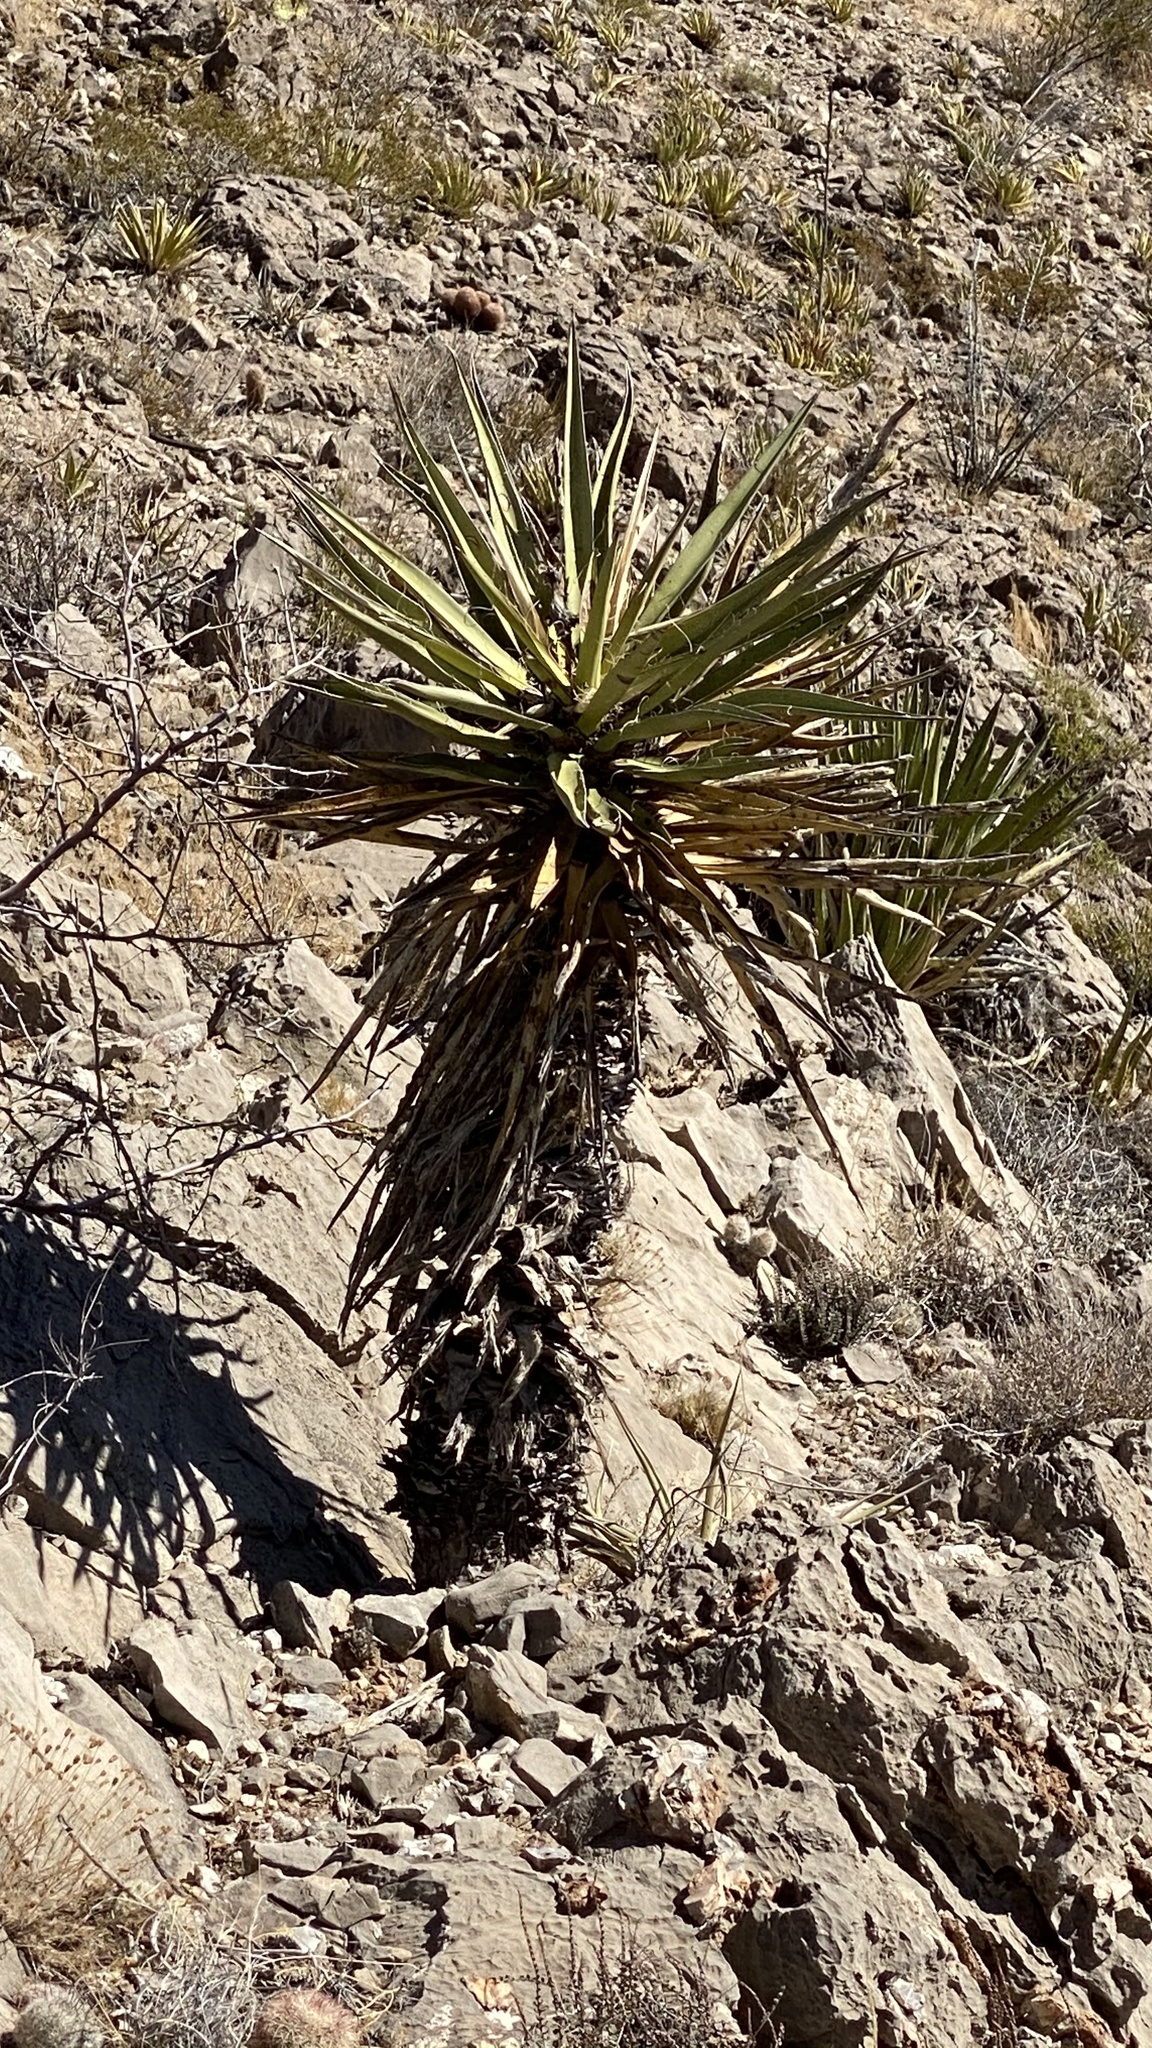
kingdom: Plantae
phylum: Tracheophyta
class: Liliopsida
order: Asparagales
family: Asparagaceae
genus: Yucca
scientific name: Yucca treculiana
